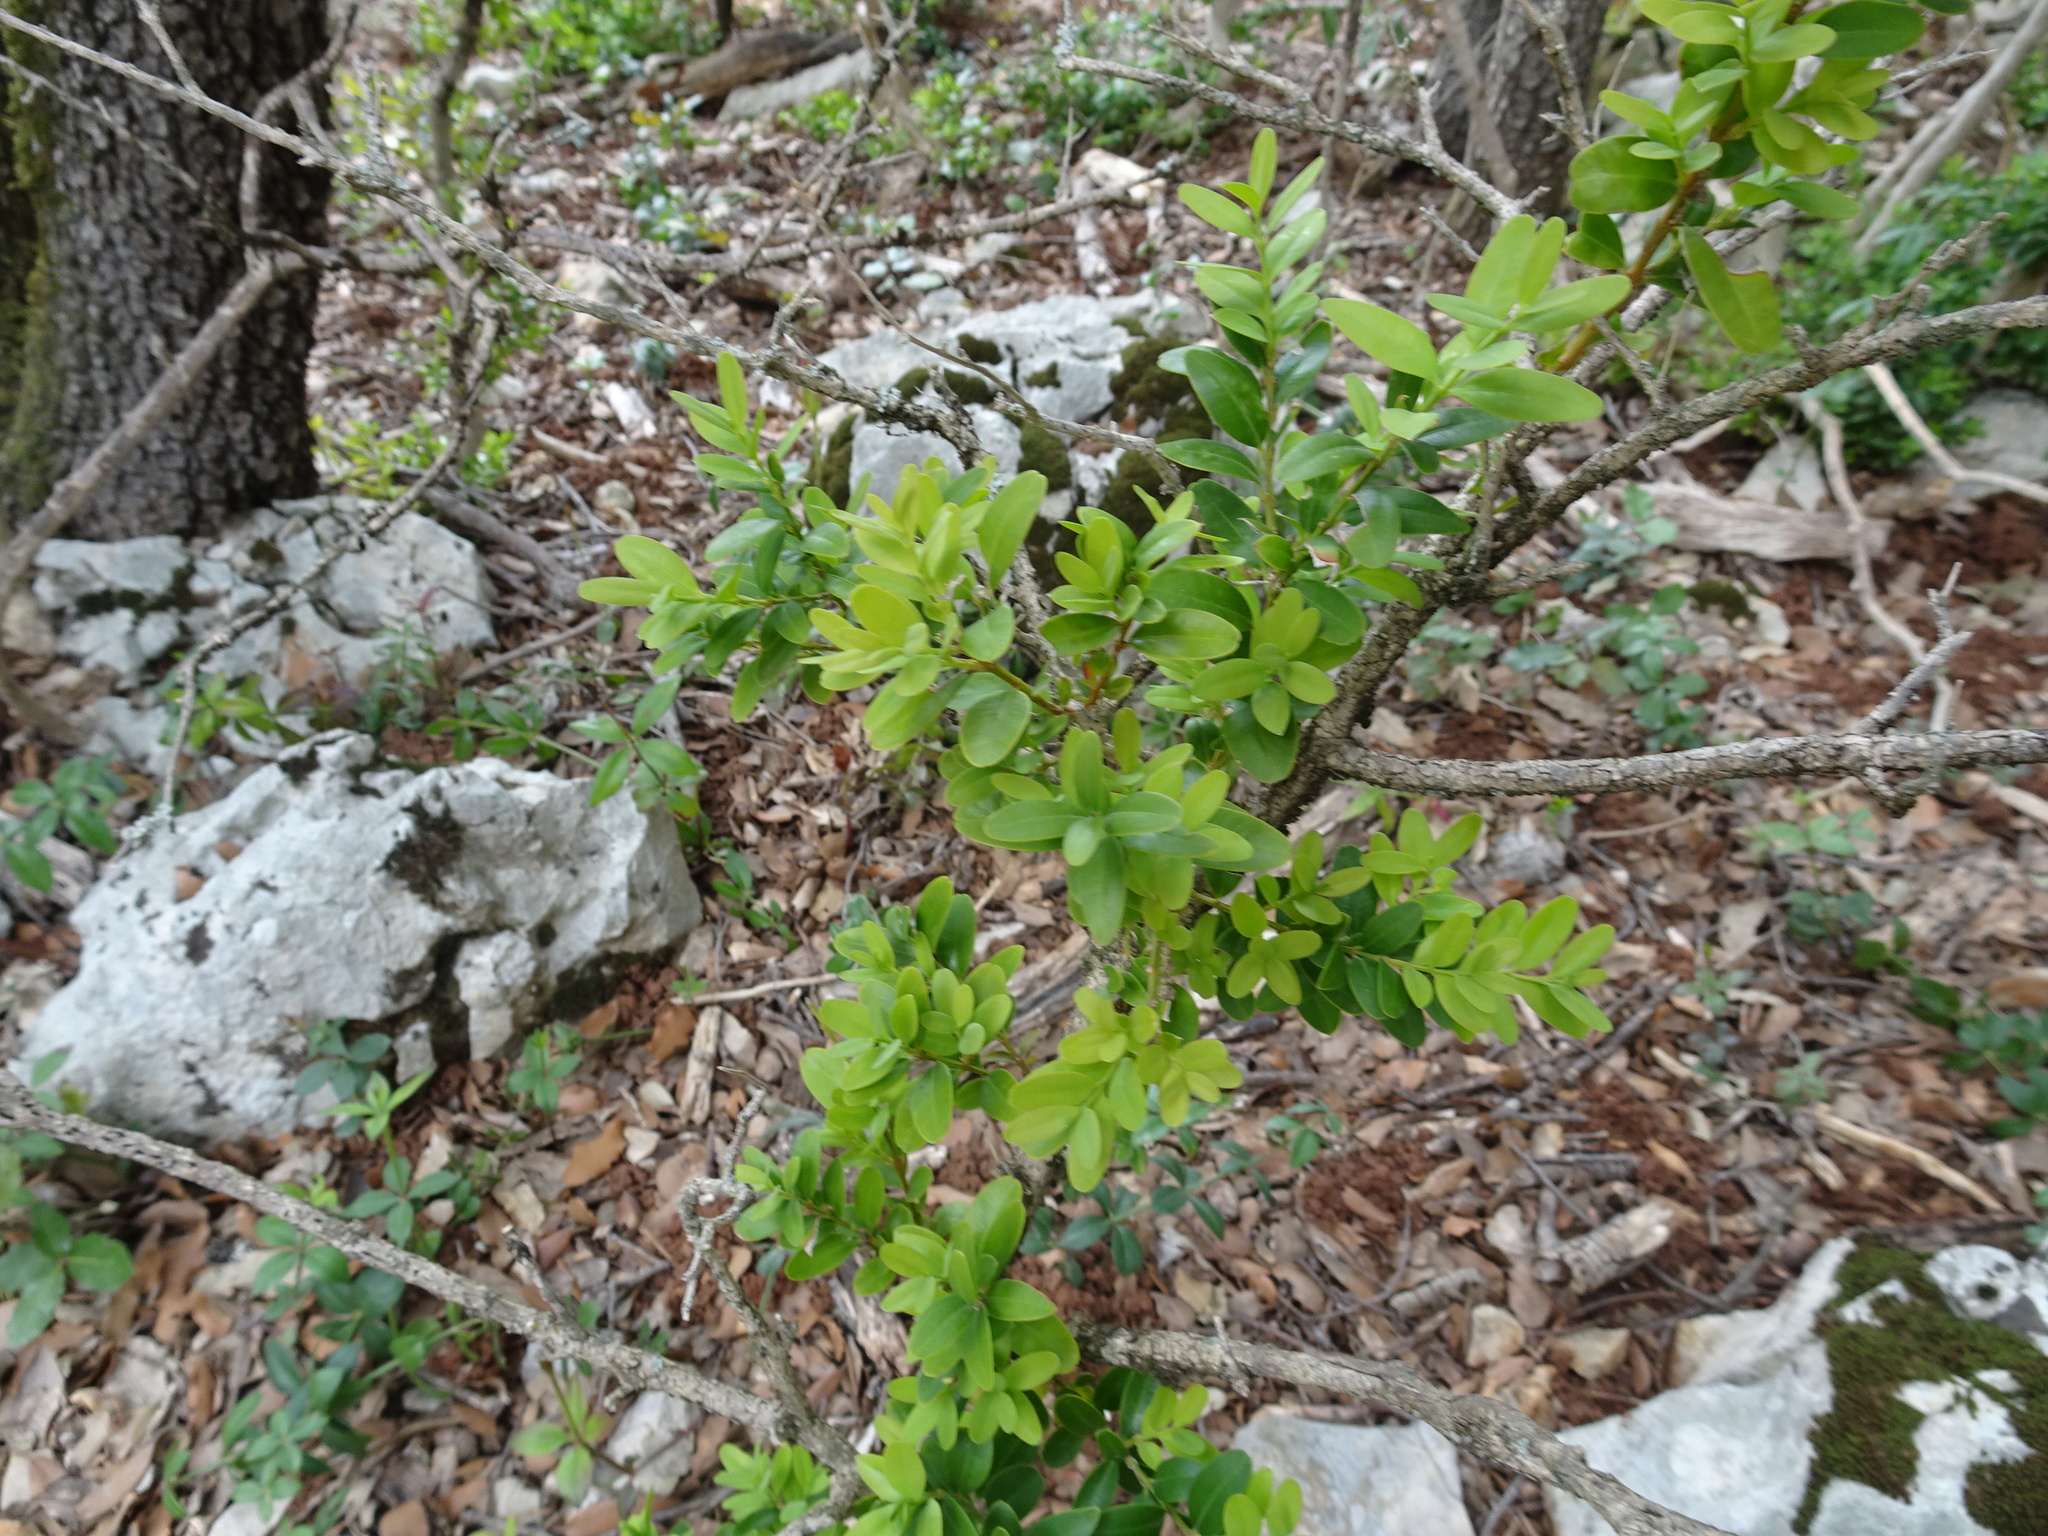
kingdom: Plantae
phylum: Tracheophyta
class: Magnoliopsida
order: Buxales
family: Buxaceae
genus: Buxus
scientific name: Buxus sempervirens
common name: Box
